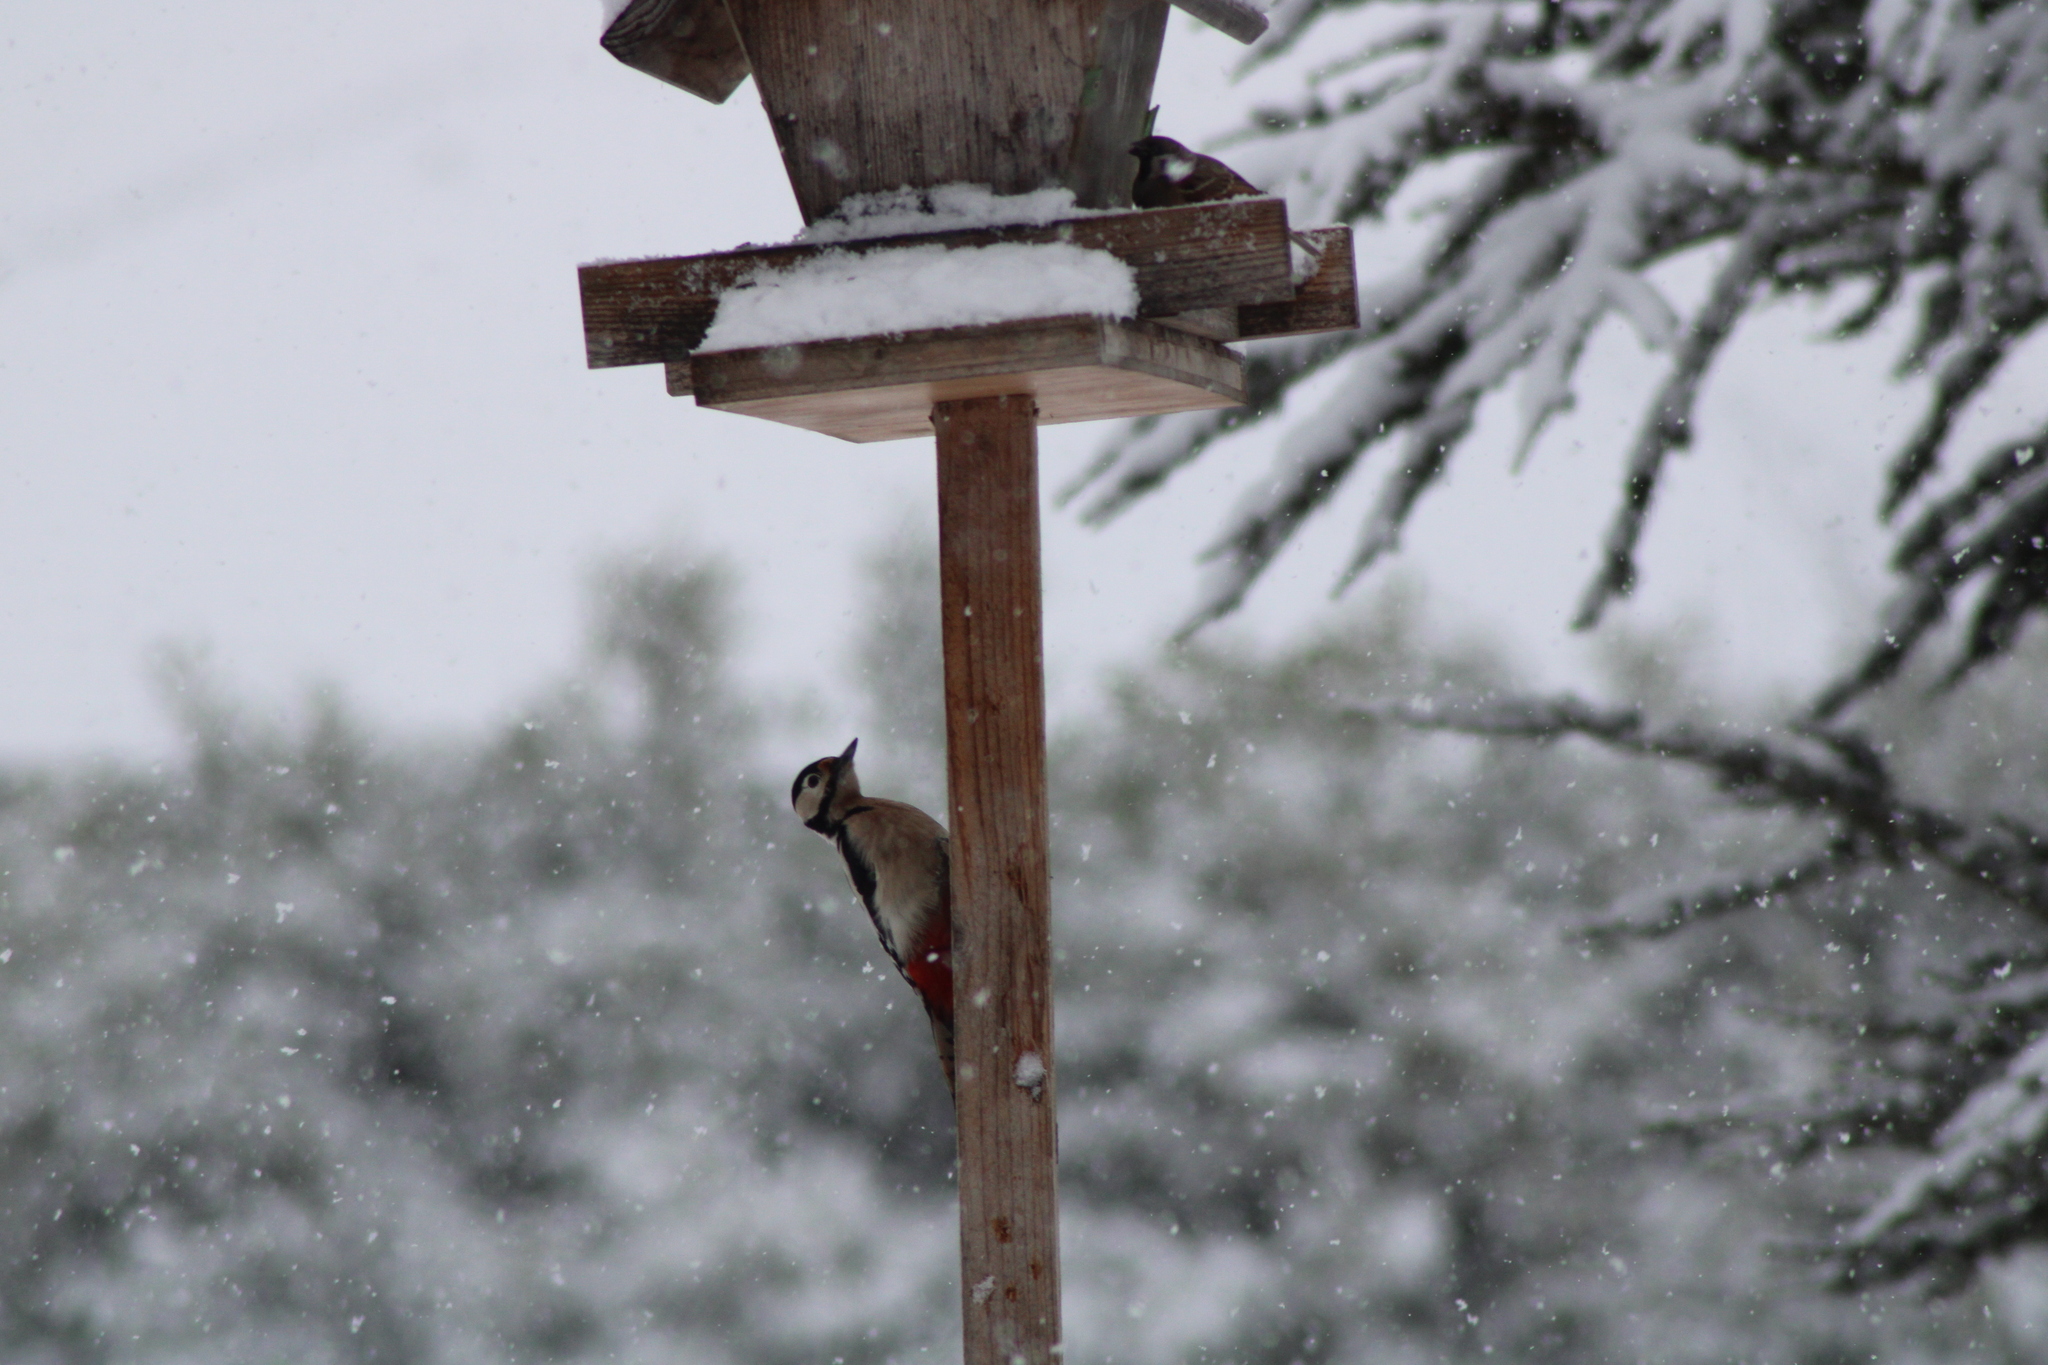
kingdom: Animalia
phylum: Chordata
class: Aves
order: Piciformes
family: Picidae
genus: Dendrocopos
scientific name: Dendrocopos major
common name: Great spotted woodpecker
